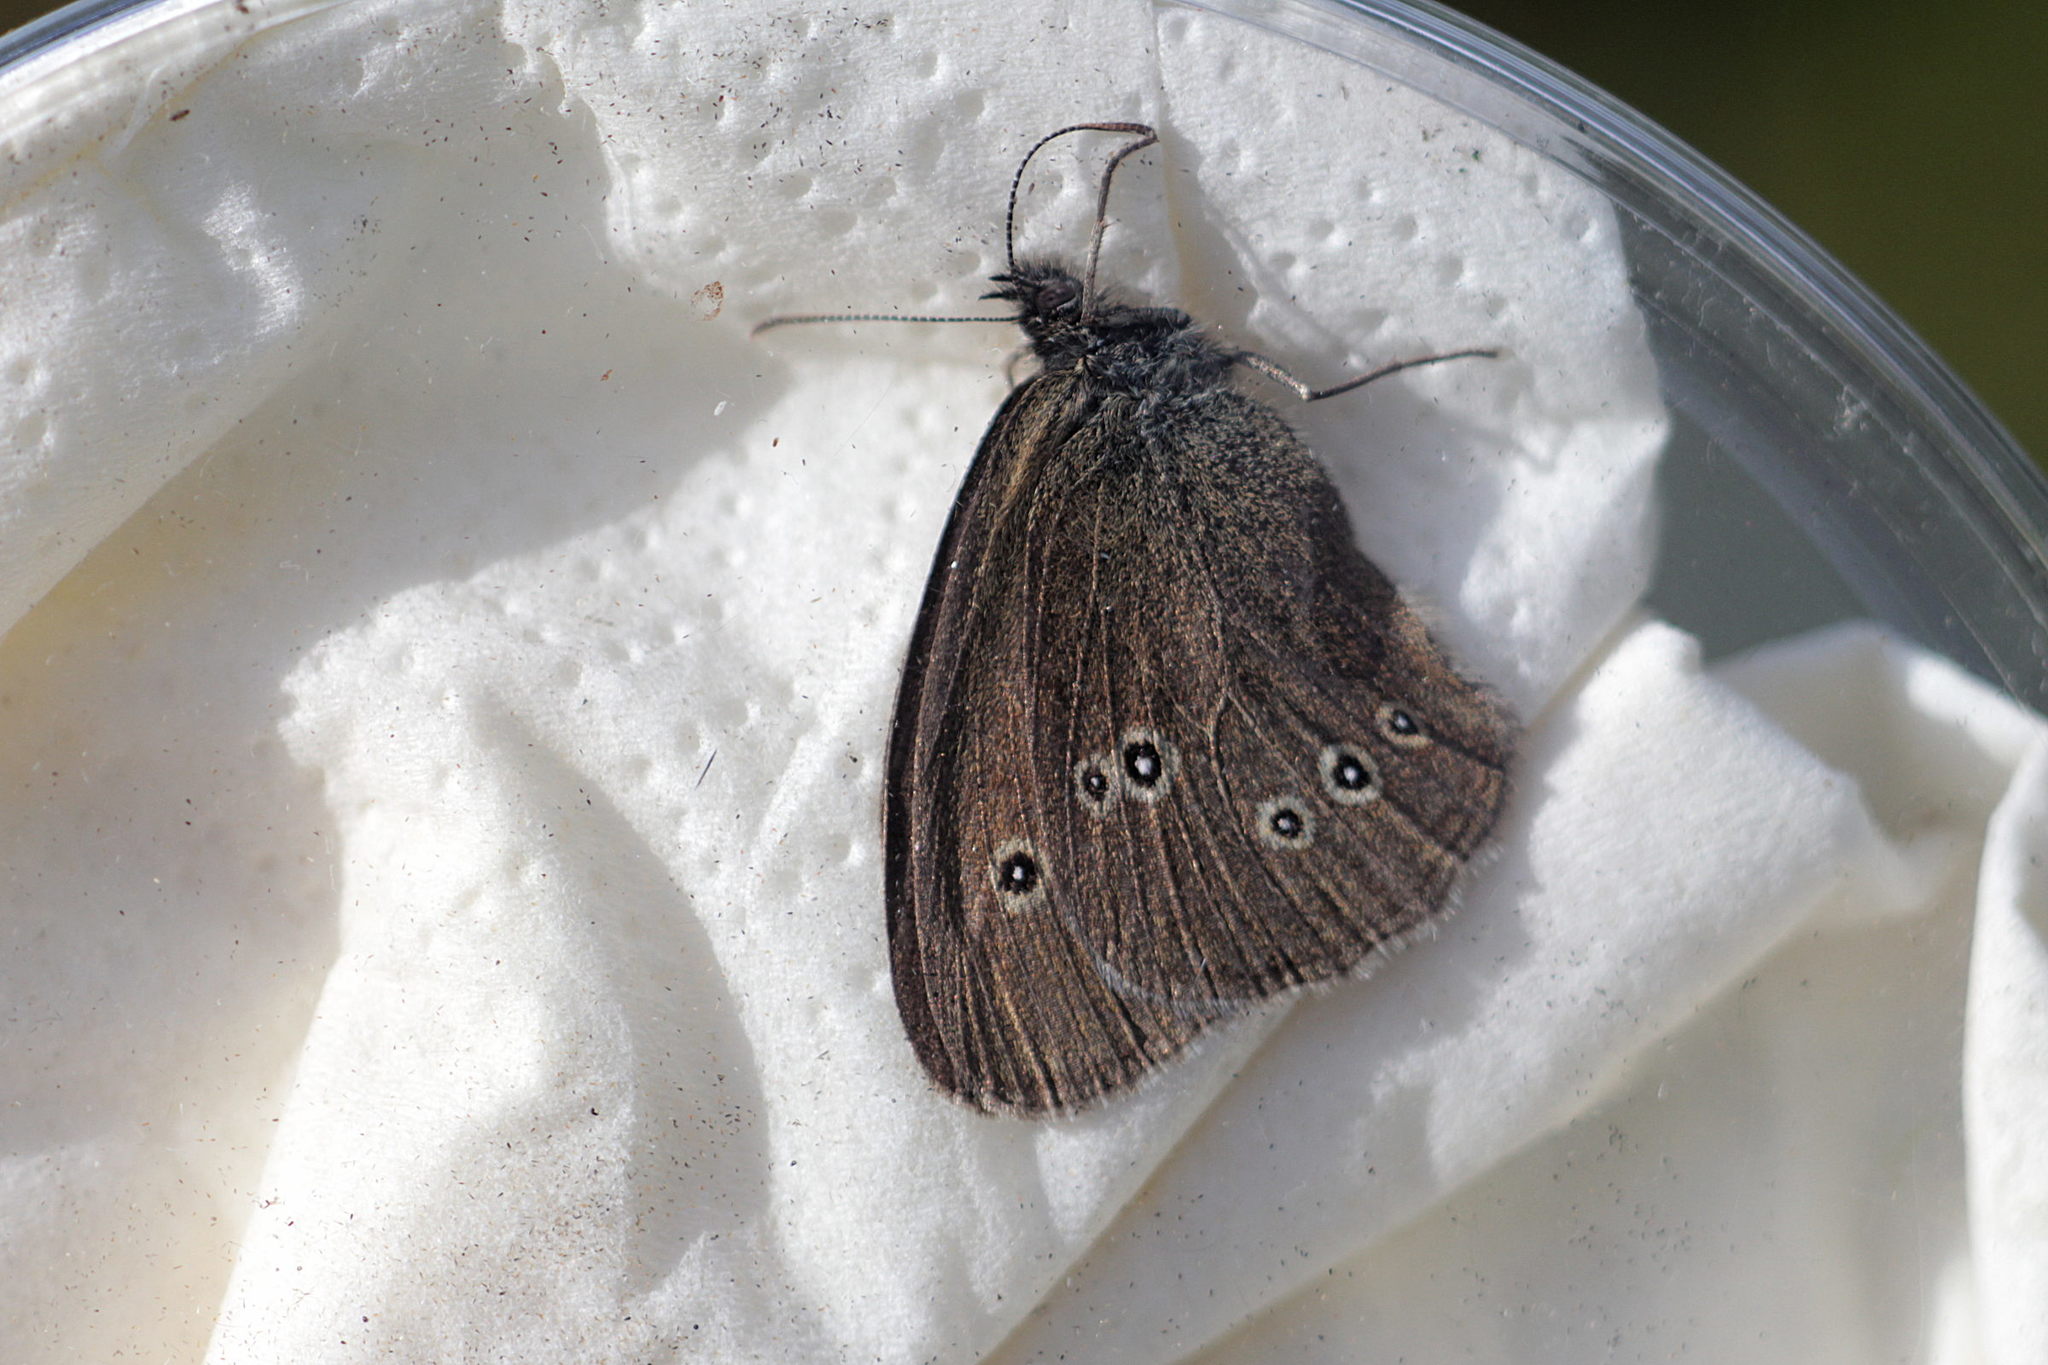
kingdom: Animalia
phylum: Arthropoda
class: Insecta
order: Lepidoptera
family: Nymphalidae
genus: Aphantopus
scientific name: Aphantopus hyperantus
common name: Ringlet
